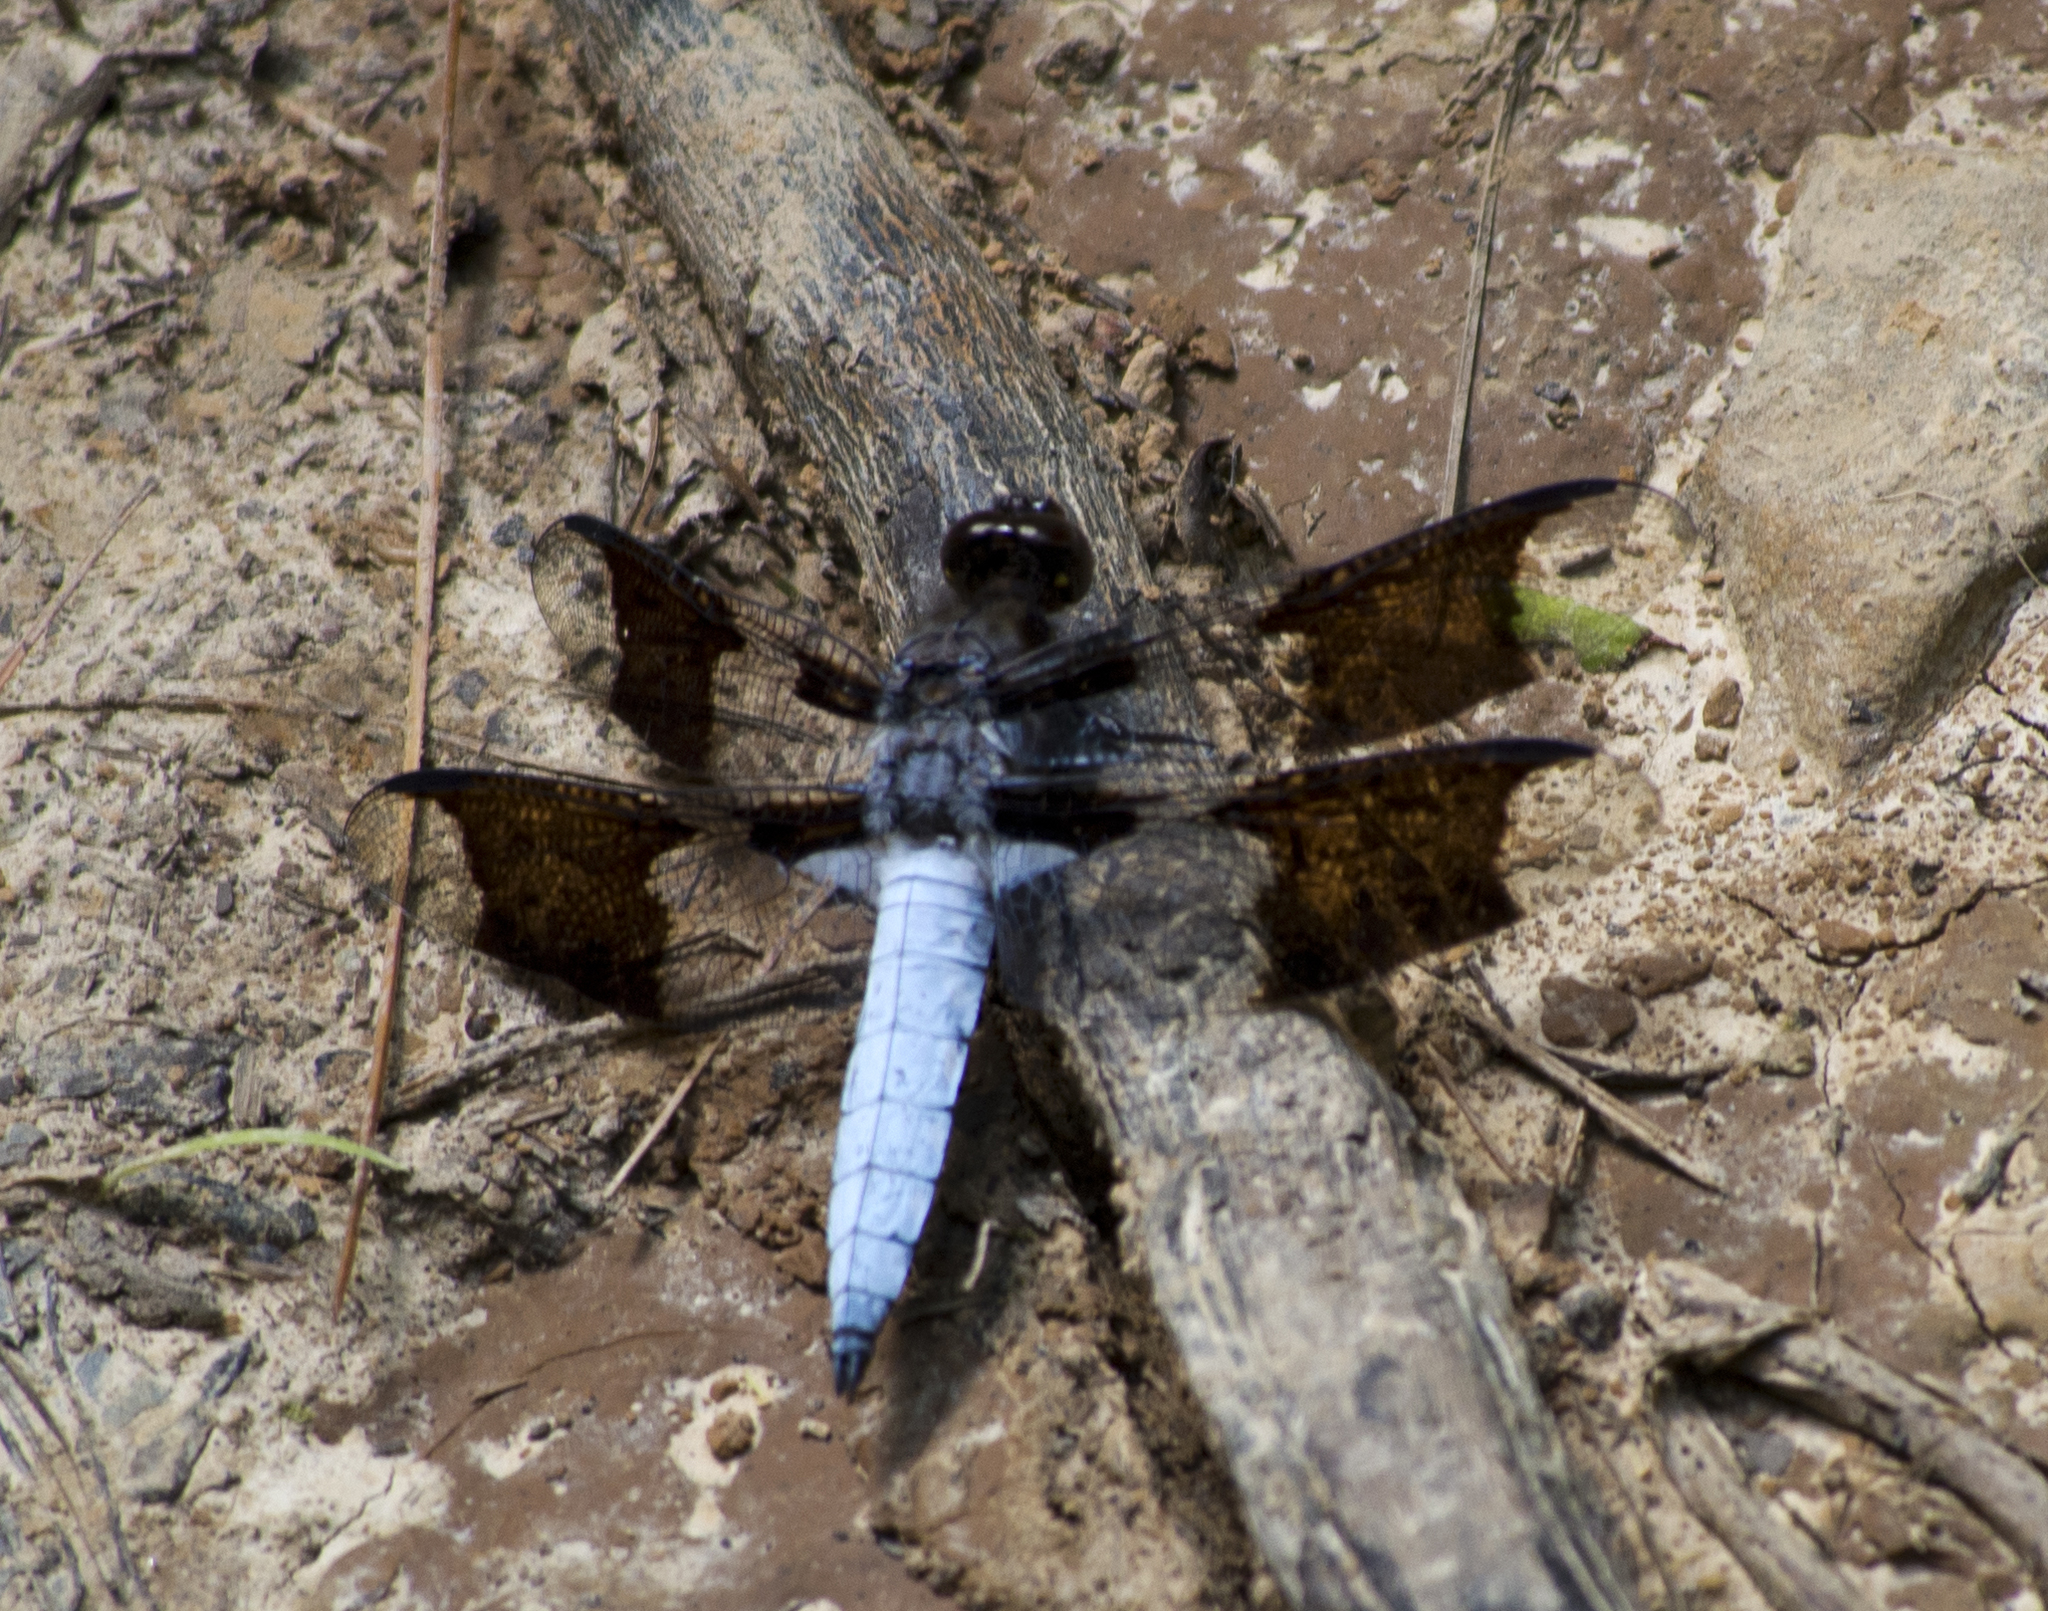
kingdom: Animalia
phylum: Arthropoda
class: Insecta
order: Odonata
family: Libellulidae
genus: Plathemis
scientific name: Plathemis lydia
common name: Common whitetail
